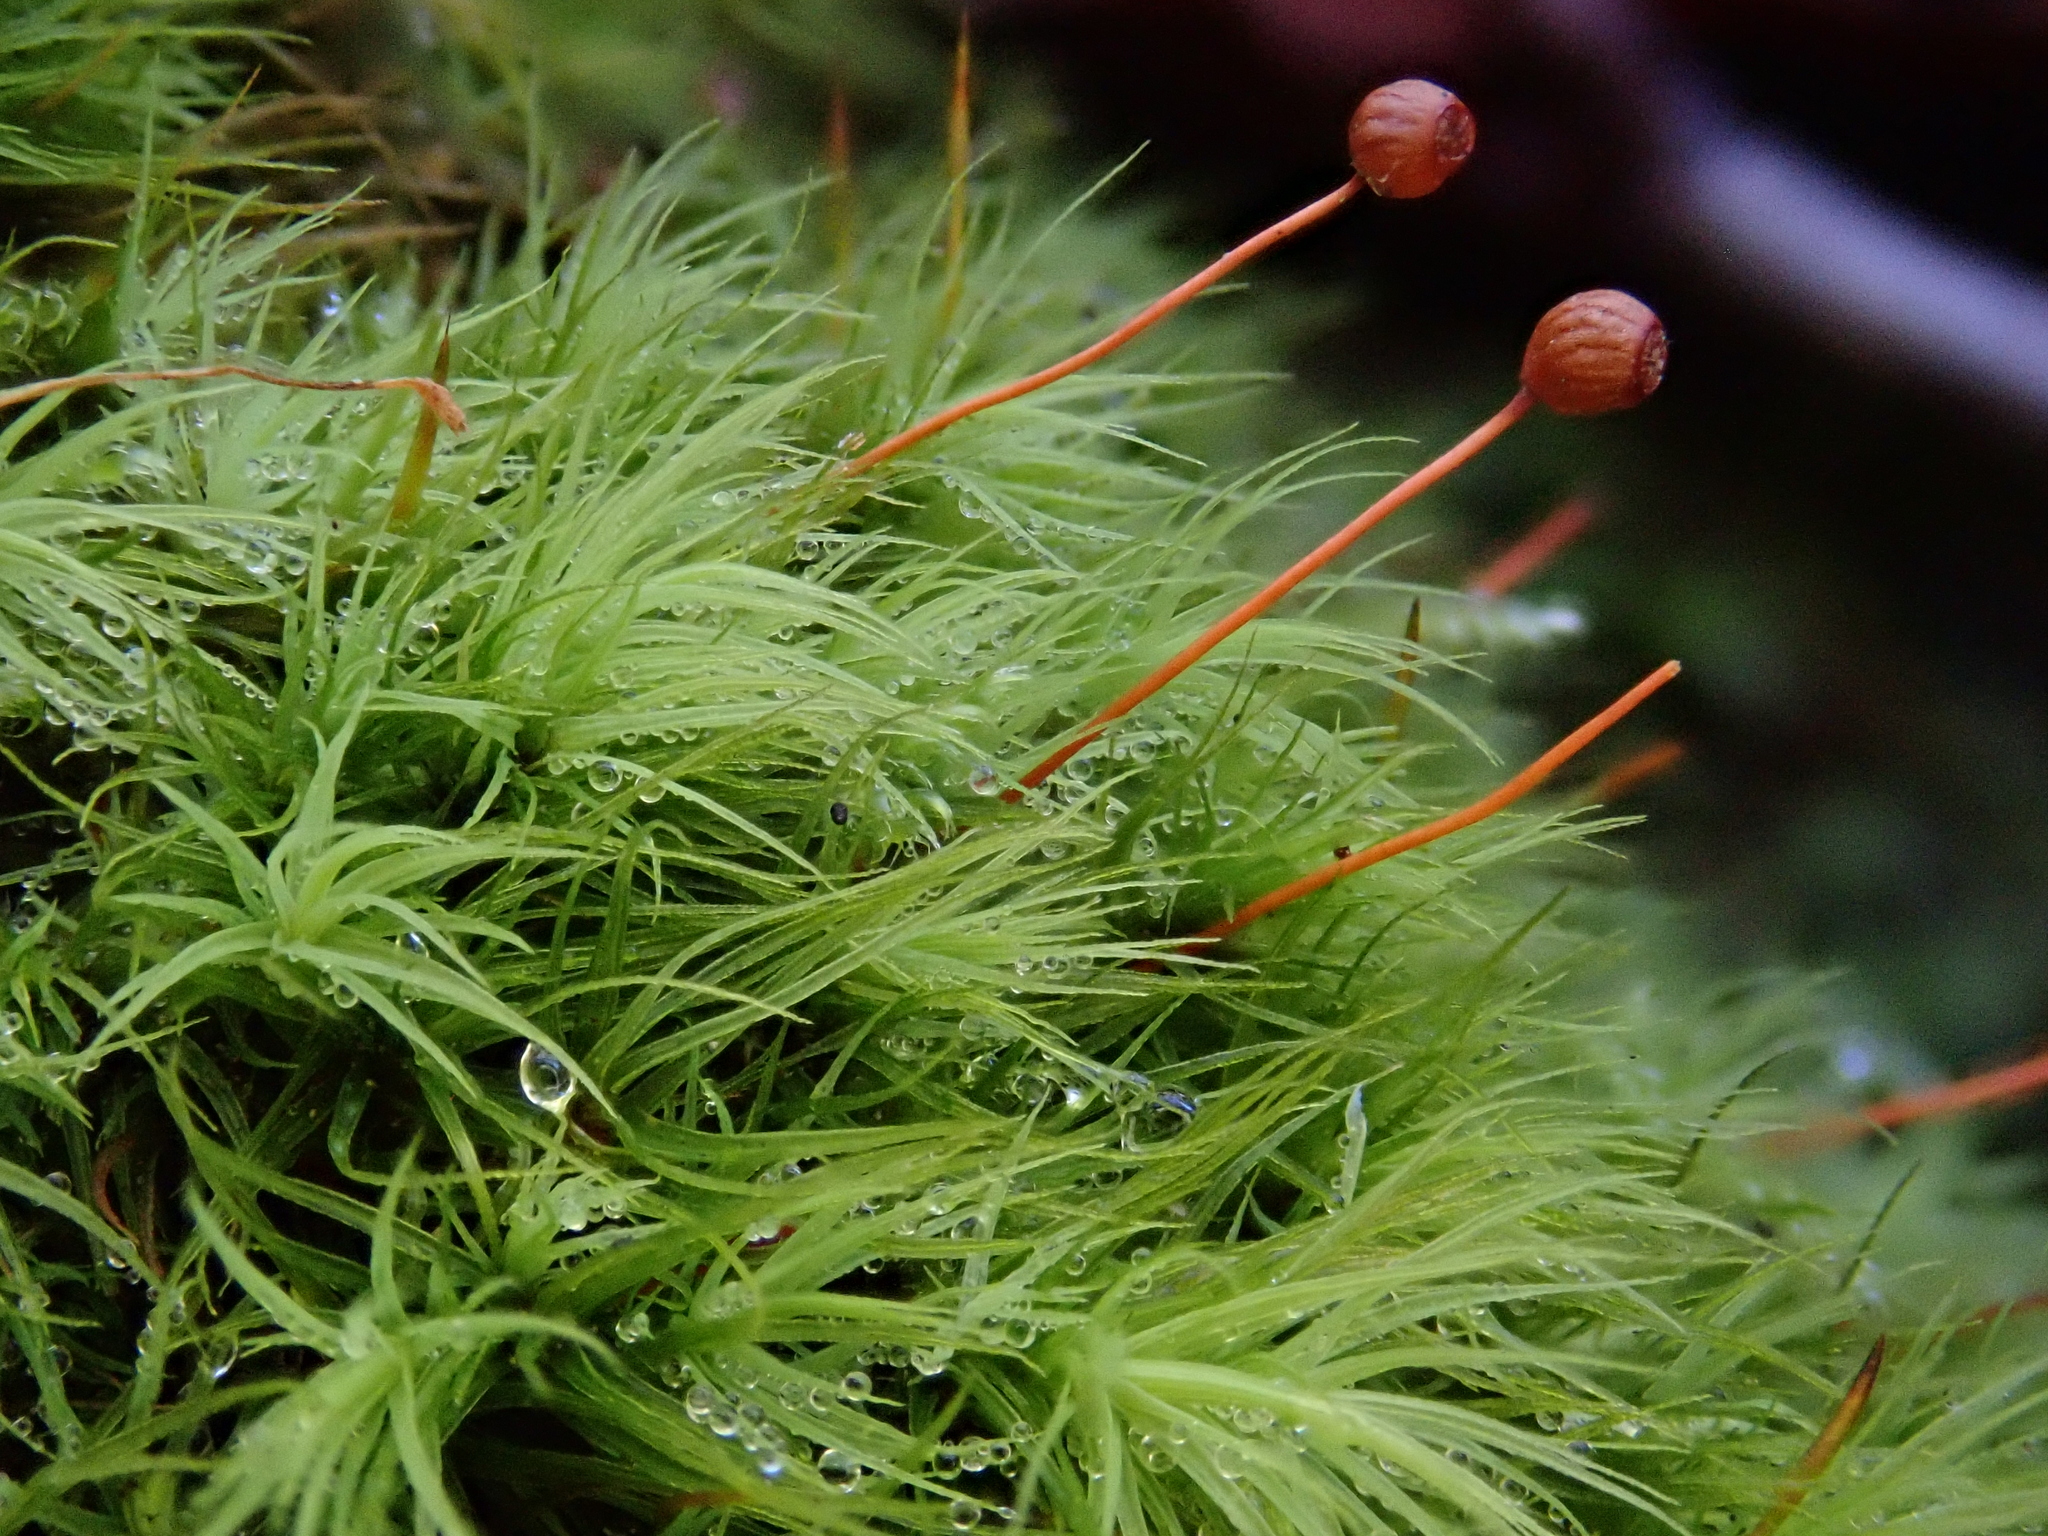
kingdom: Plantae
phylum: Bryophyta
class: Bryopsida
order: Bartramiales
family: Bartramiaceae
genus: Bartramia
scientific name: Bartramia ithyphylla
